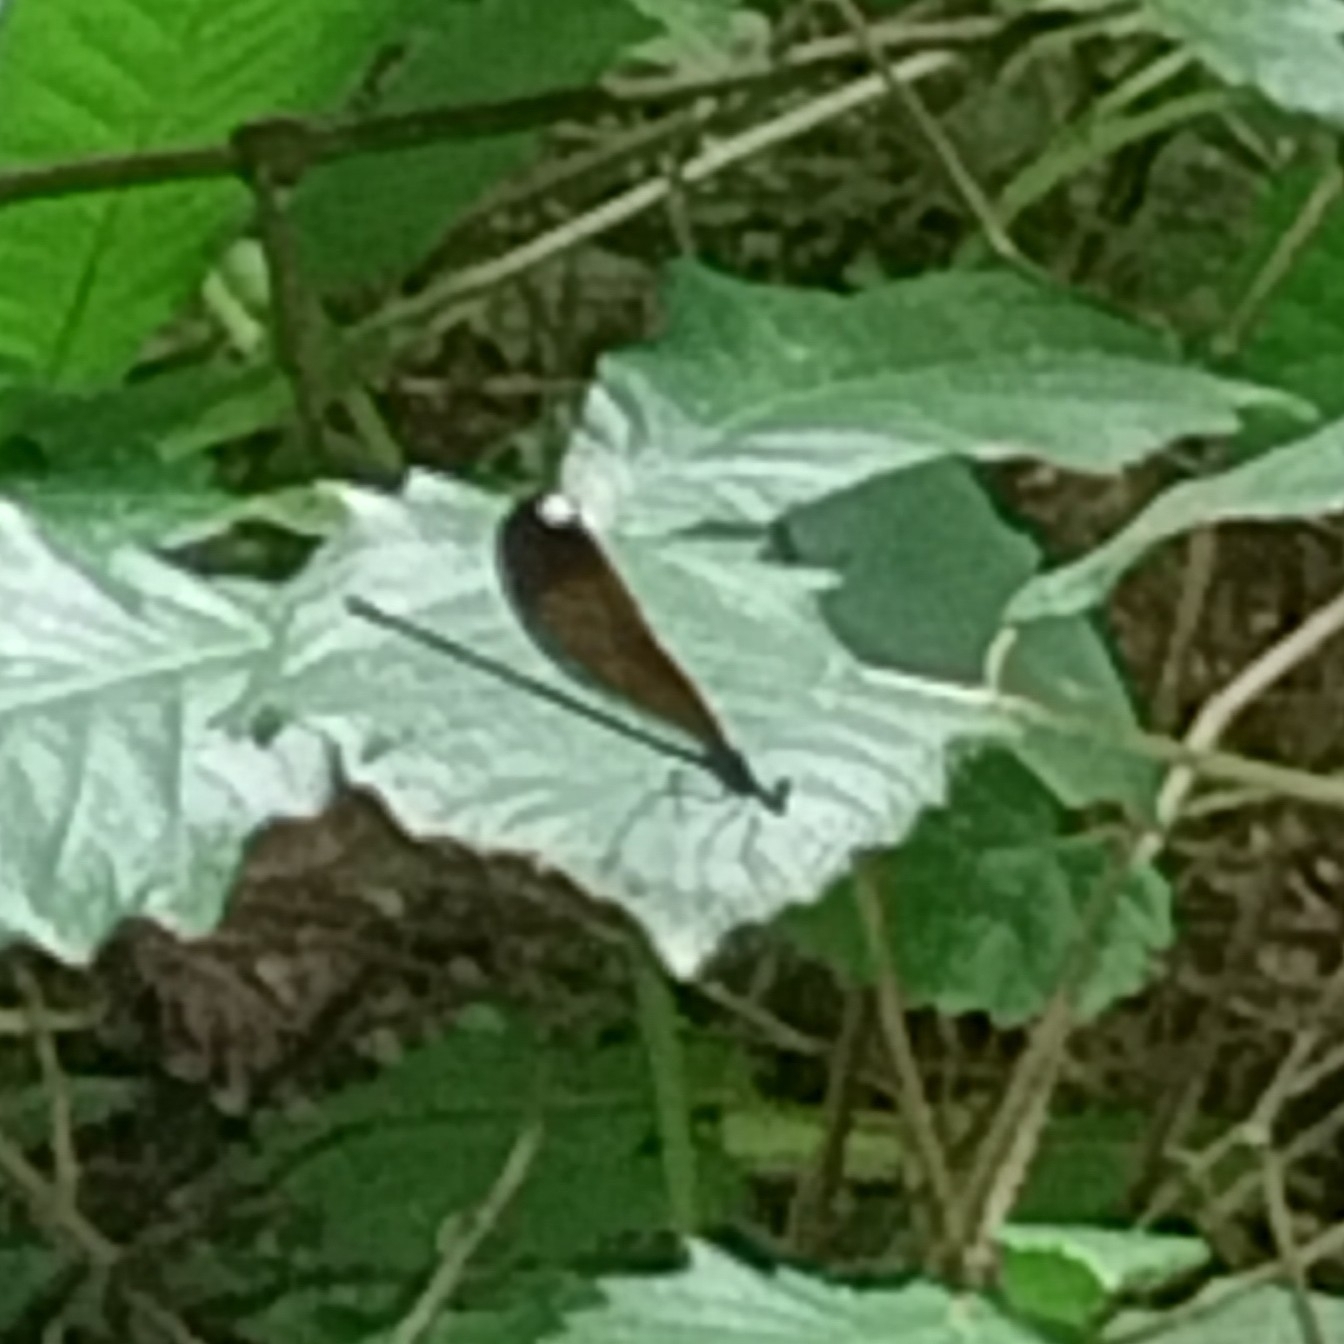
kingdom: Animalia
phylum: Arthropoda
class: Insecta
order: Odonata
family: Calopterygidae
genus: Calopteryx
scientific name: Calopteryx maculata
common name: Ebony jewelwing
